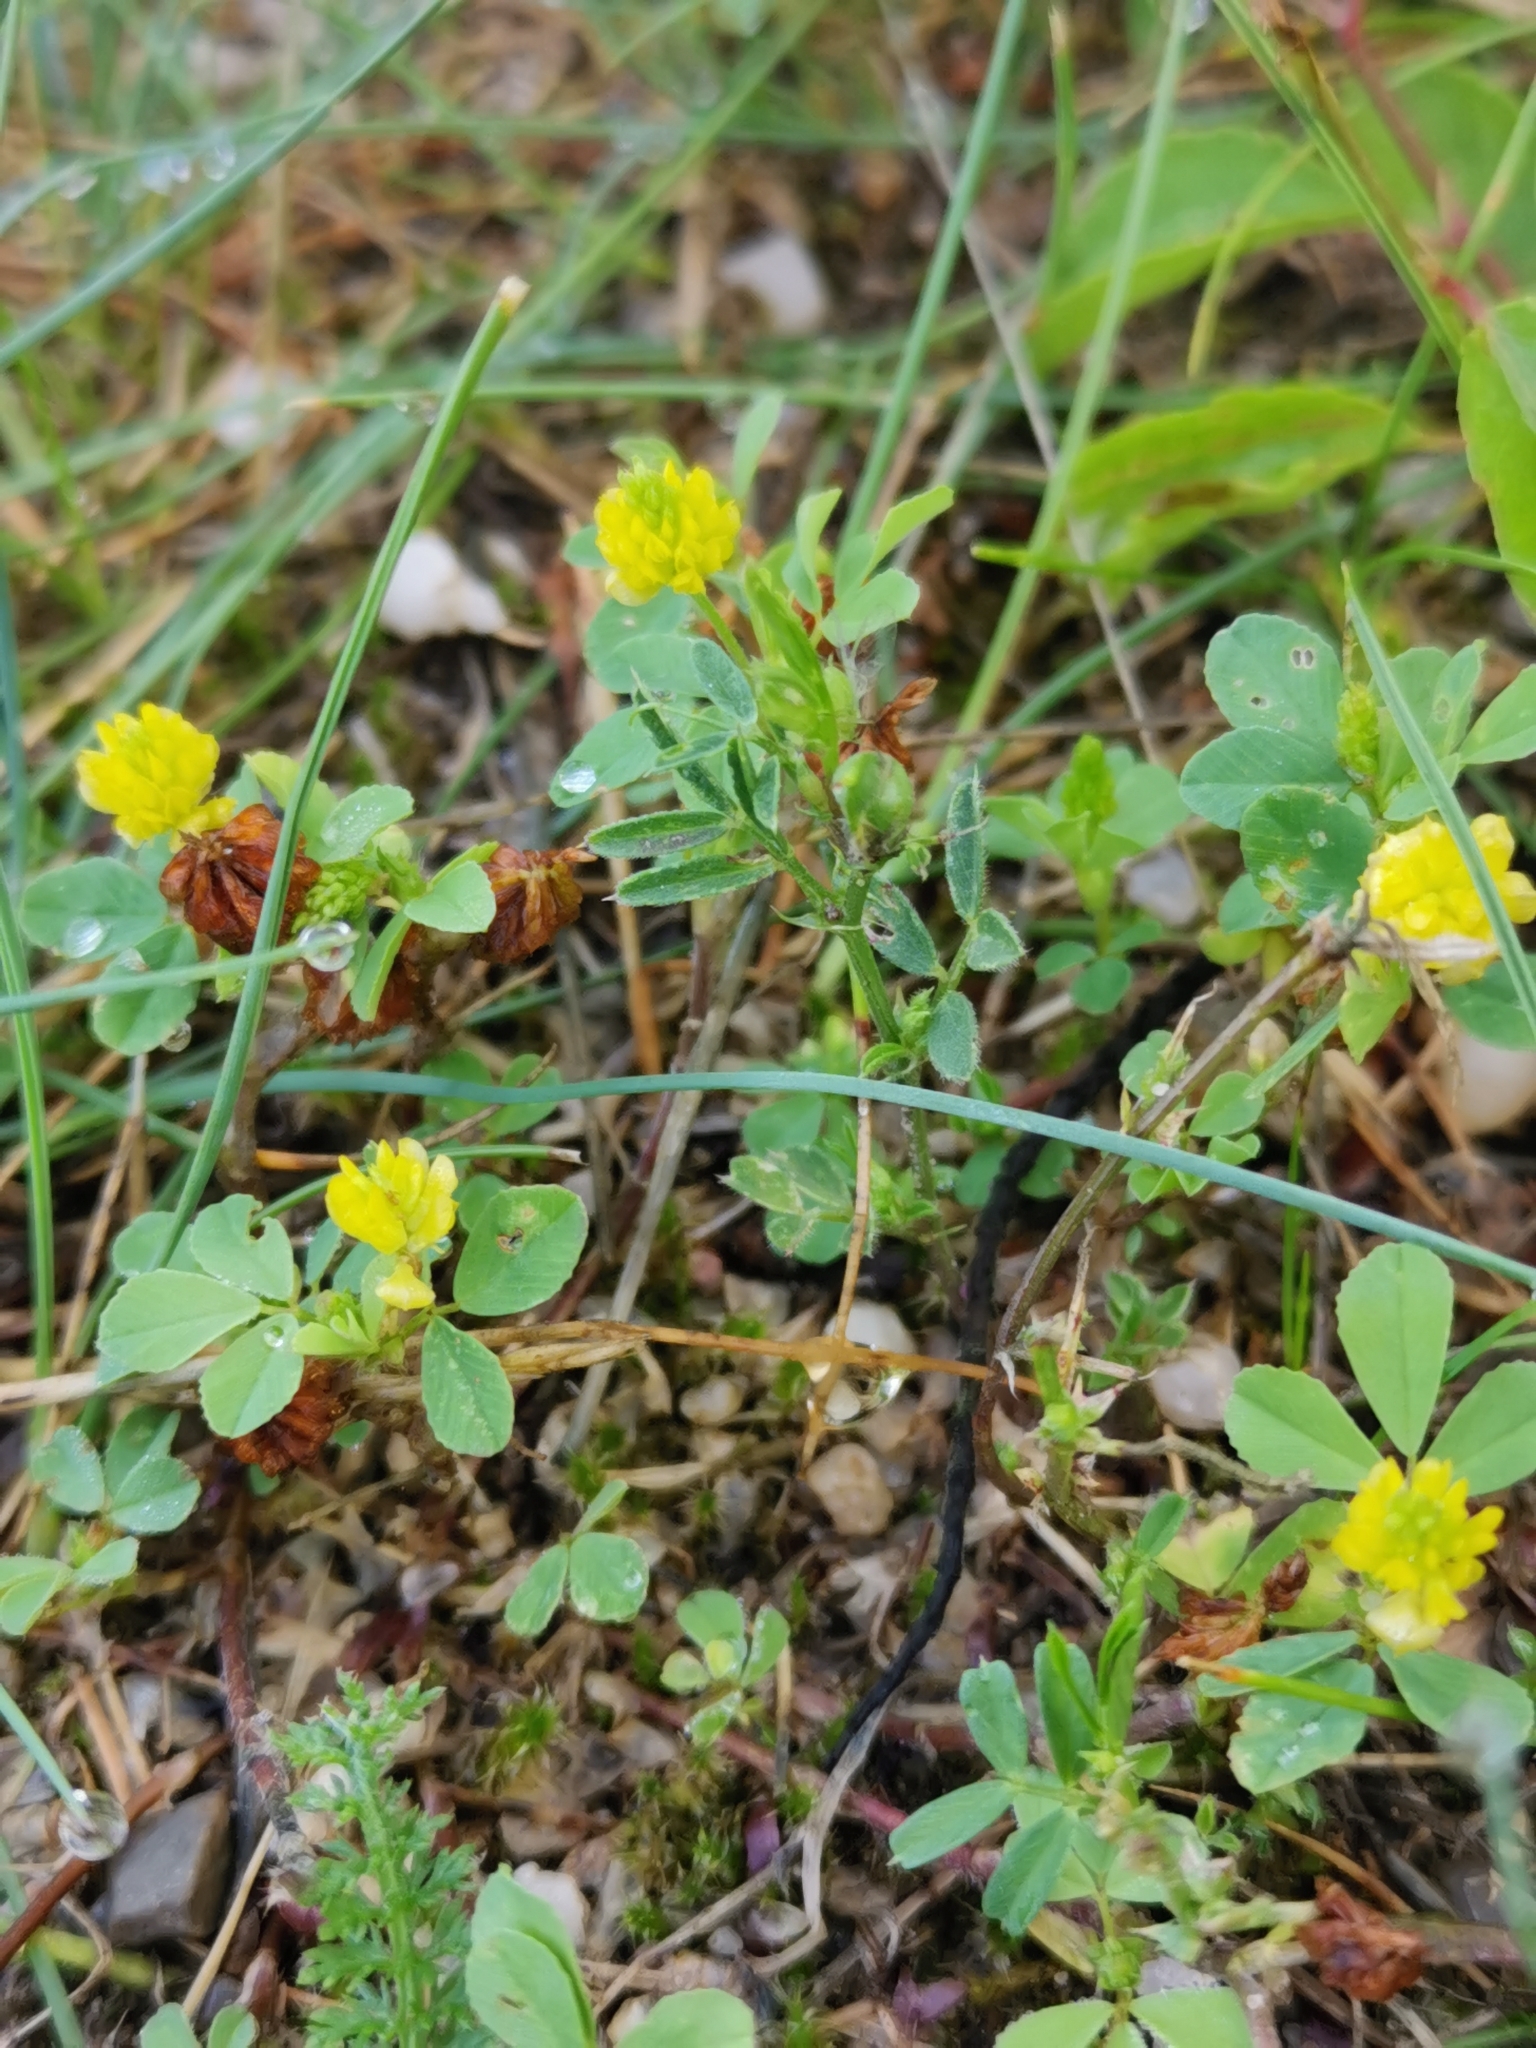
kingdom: Plantae
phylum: Tracheophyta
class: Magnoliopsida
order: Fabales
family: Fabaceae
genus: Trifolium
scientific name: Trifolium campestre
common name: Field clover
